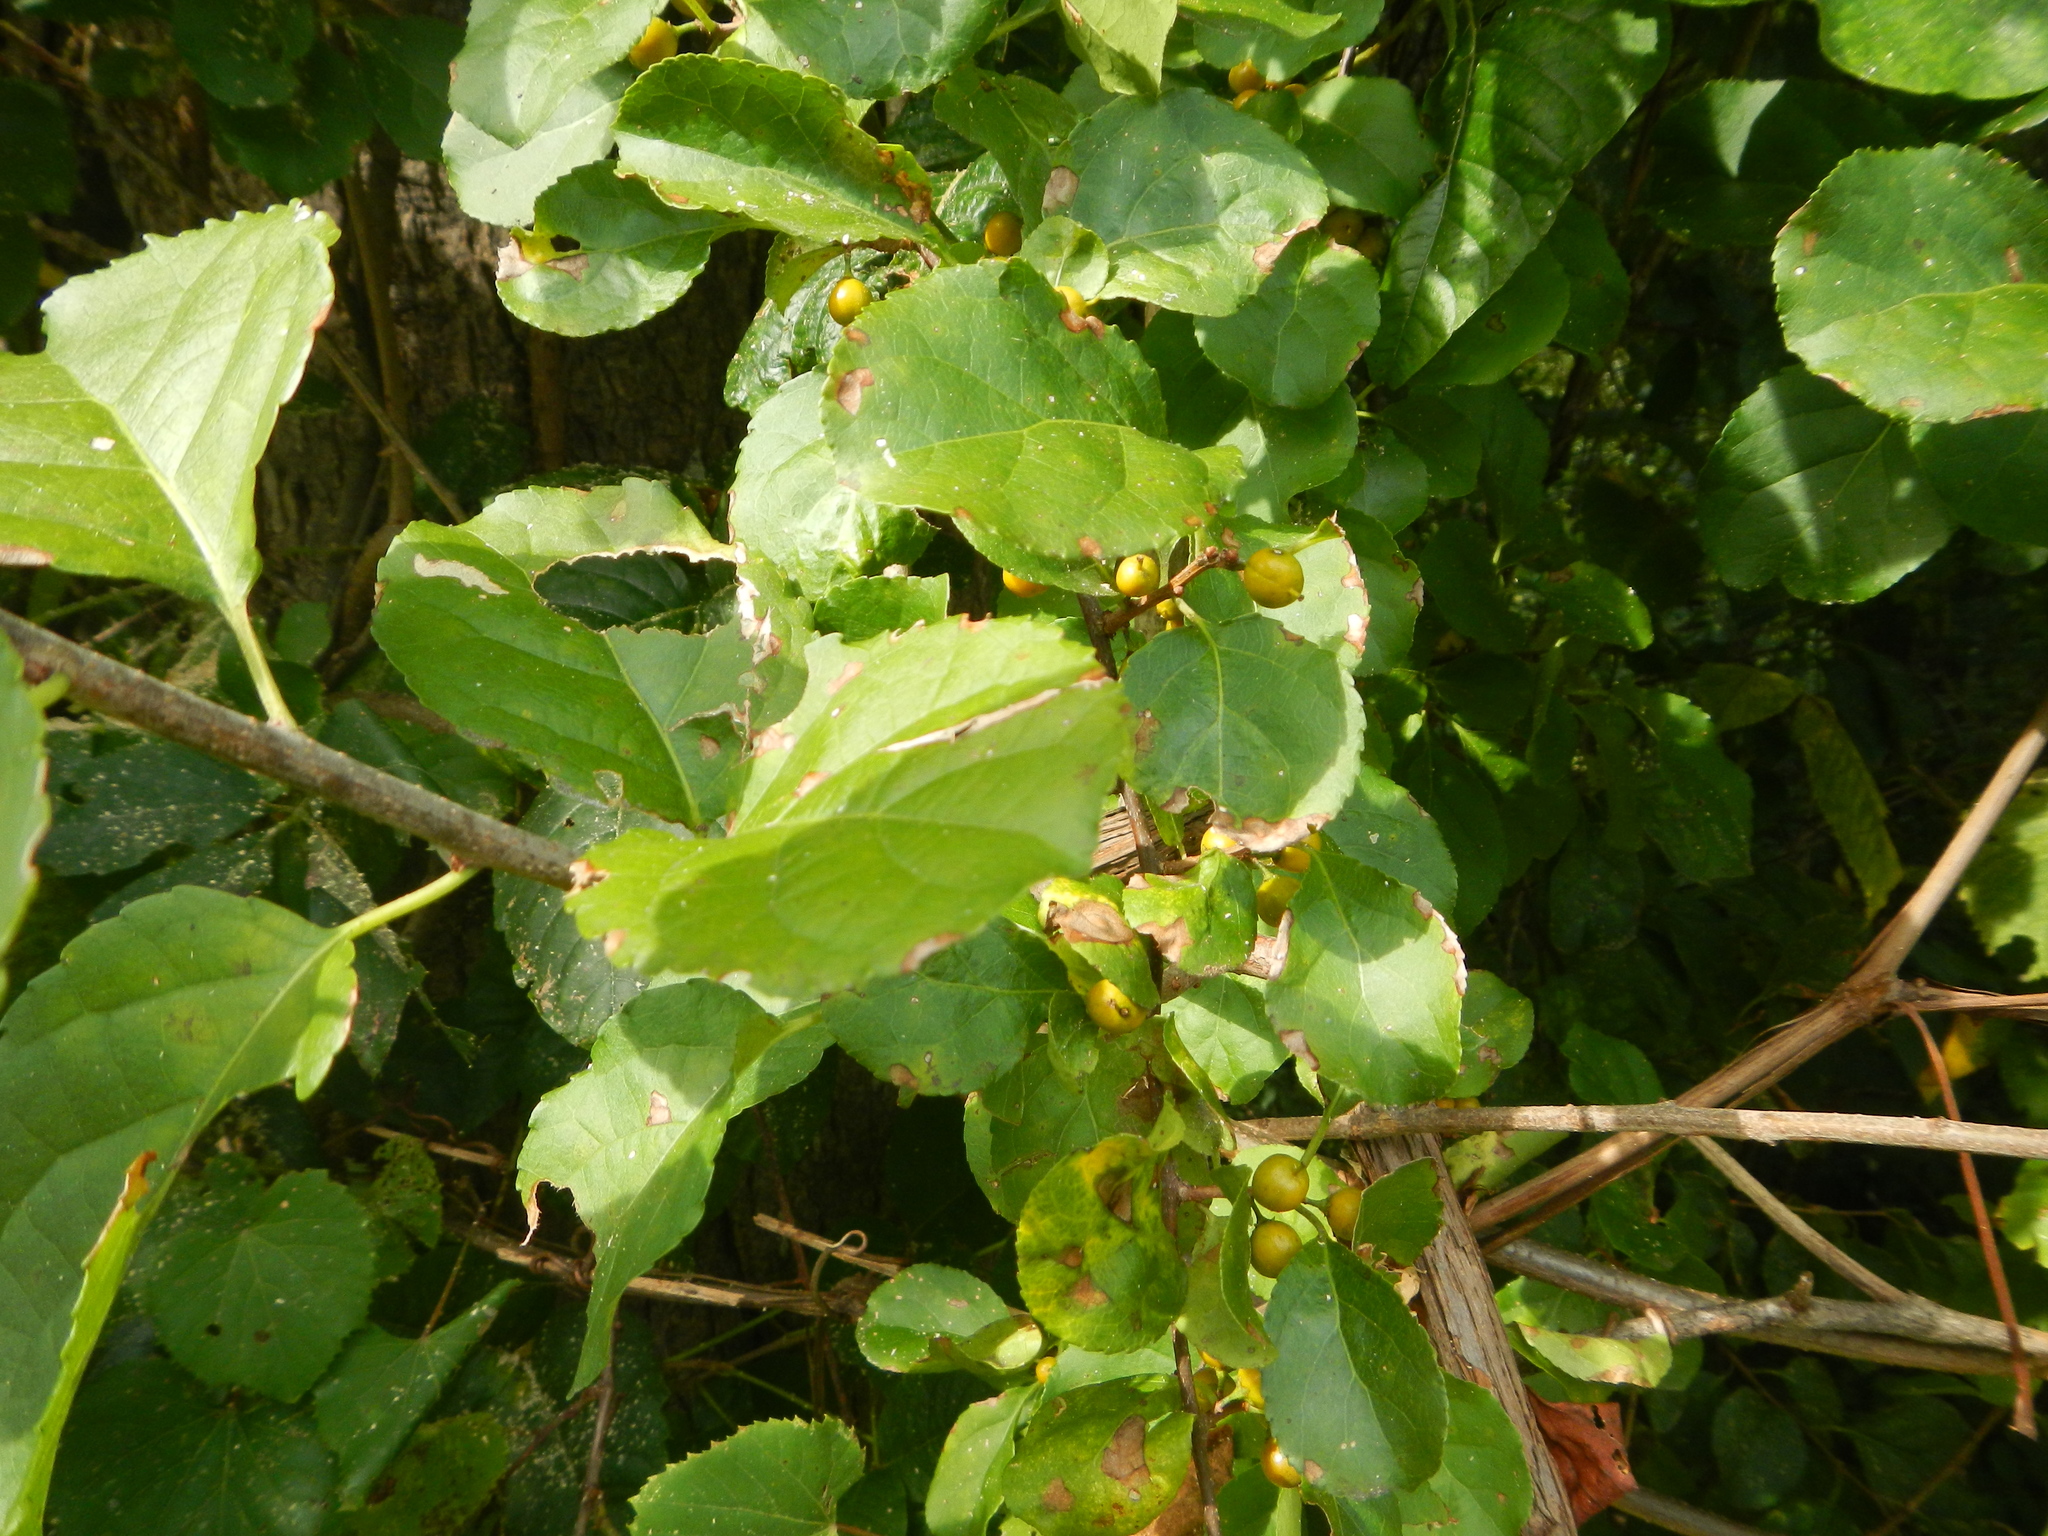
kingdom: Plantae
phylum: Tracheophyta
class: Magnoliopsida
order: Celastrales
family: Celastraceae
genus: Celastrus
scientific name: Celastrus orbiculatus
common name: Oriental bittersweet
